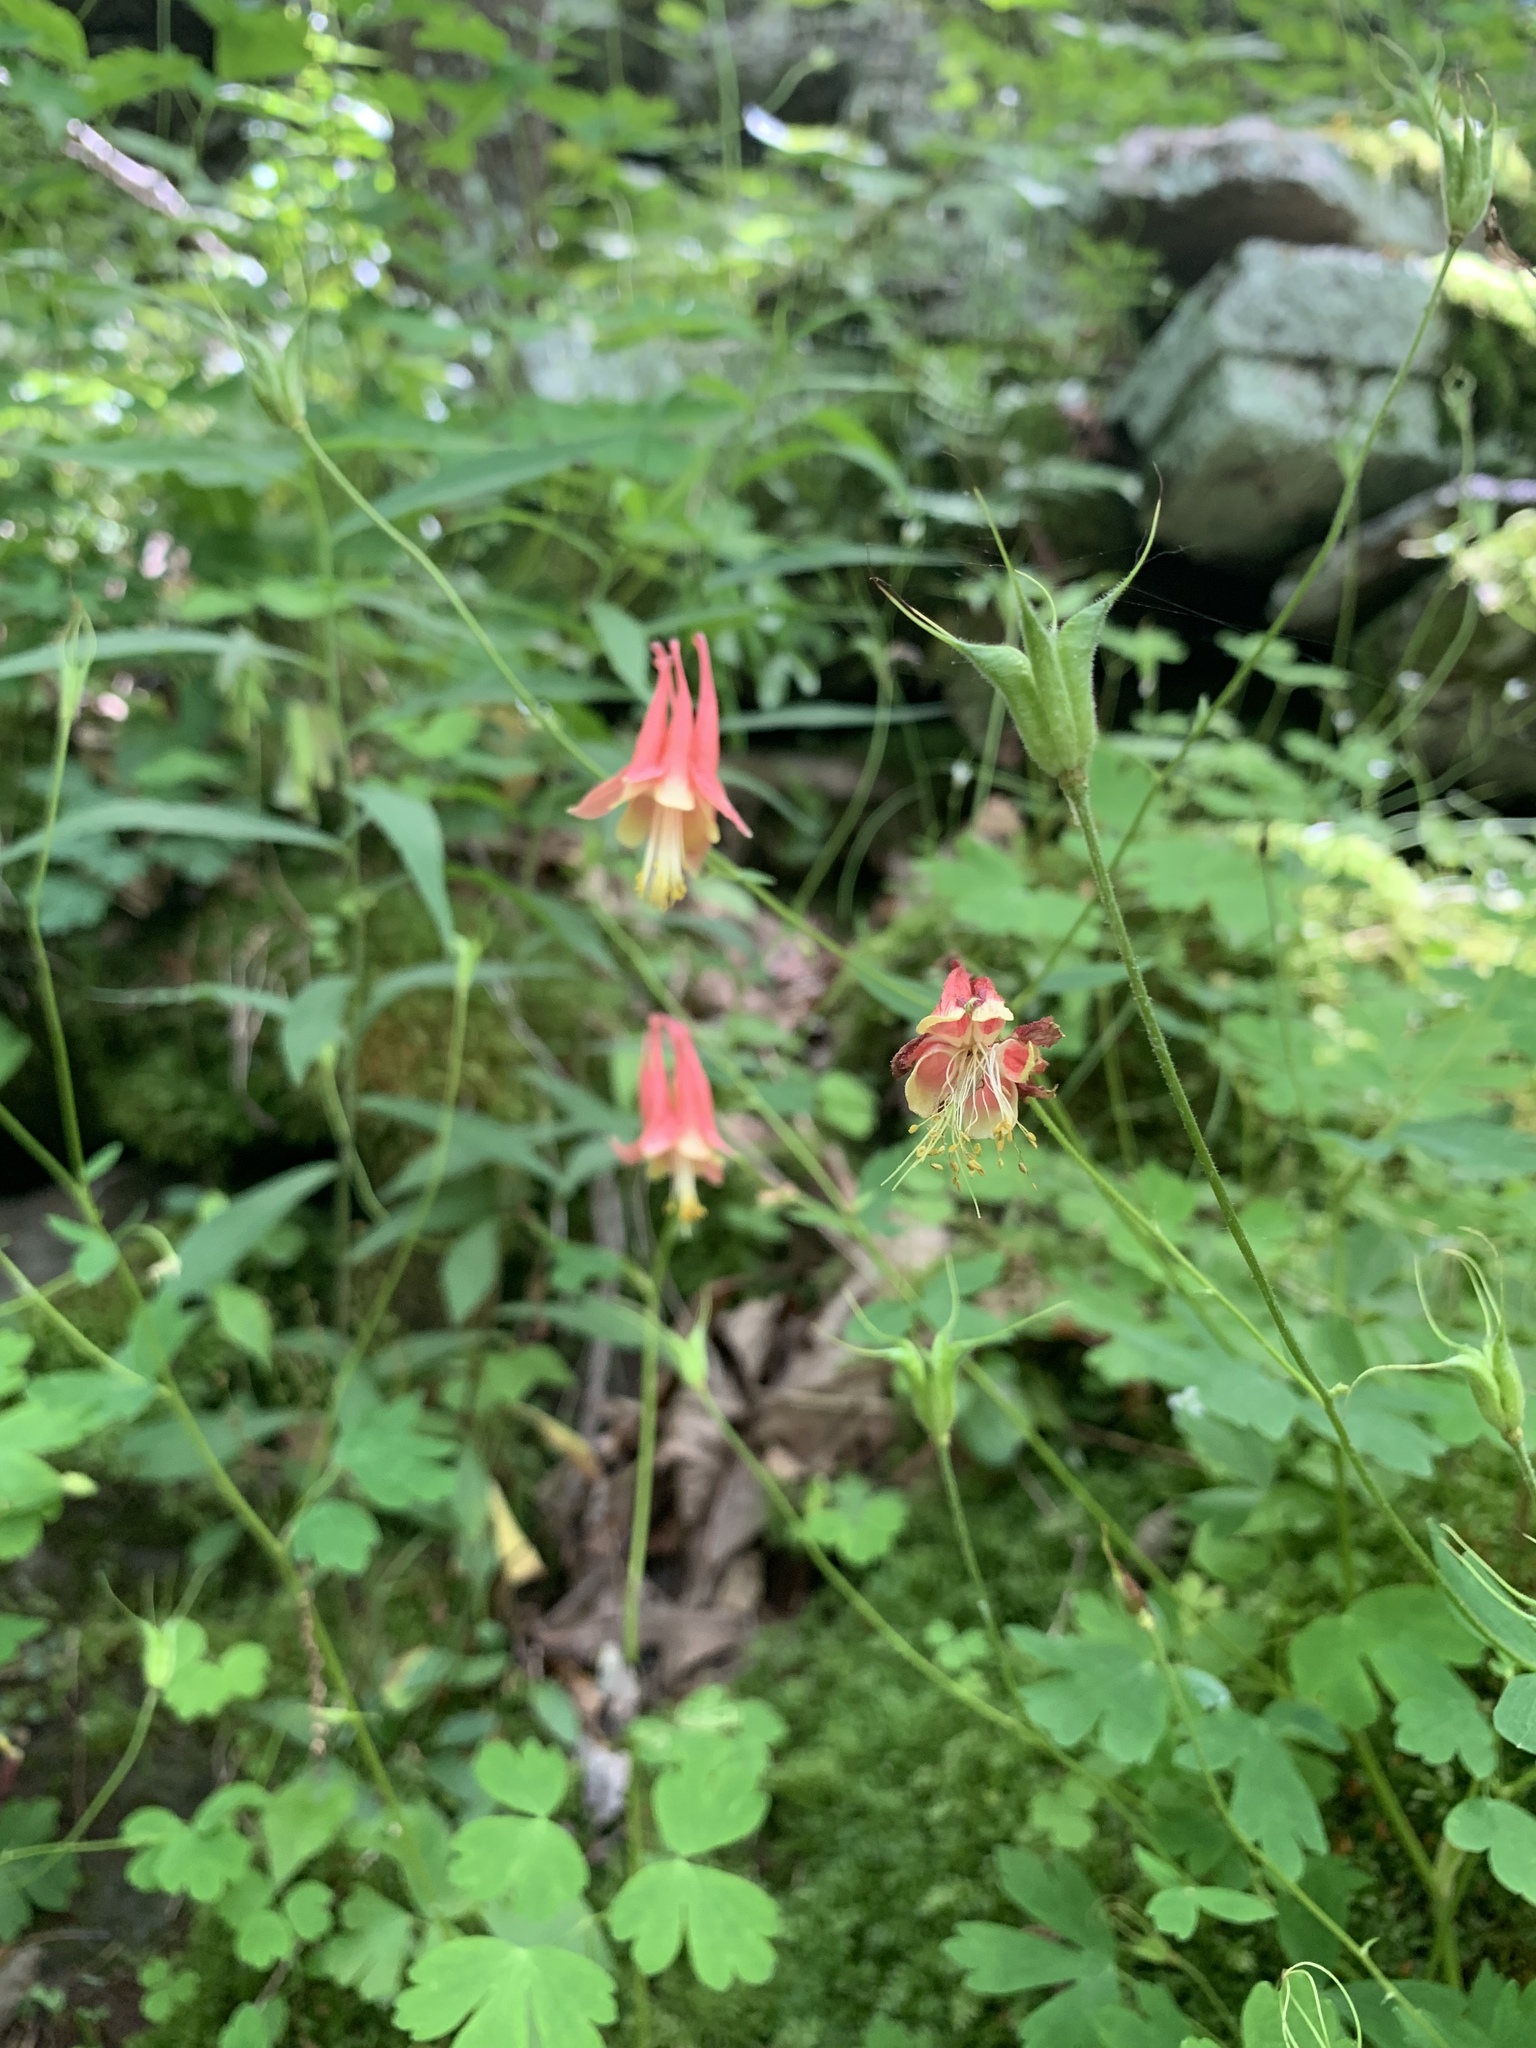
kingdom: Plantae
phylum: Tracheophyta
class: Magnoliopsida
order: Ranunculales
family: Ranunculaceae
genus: Aquilegia
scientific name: Aquilegia canadensis
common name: American columbine
